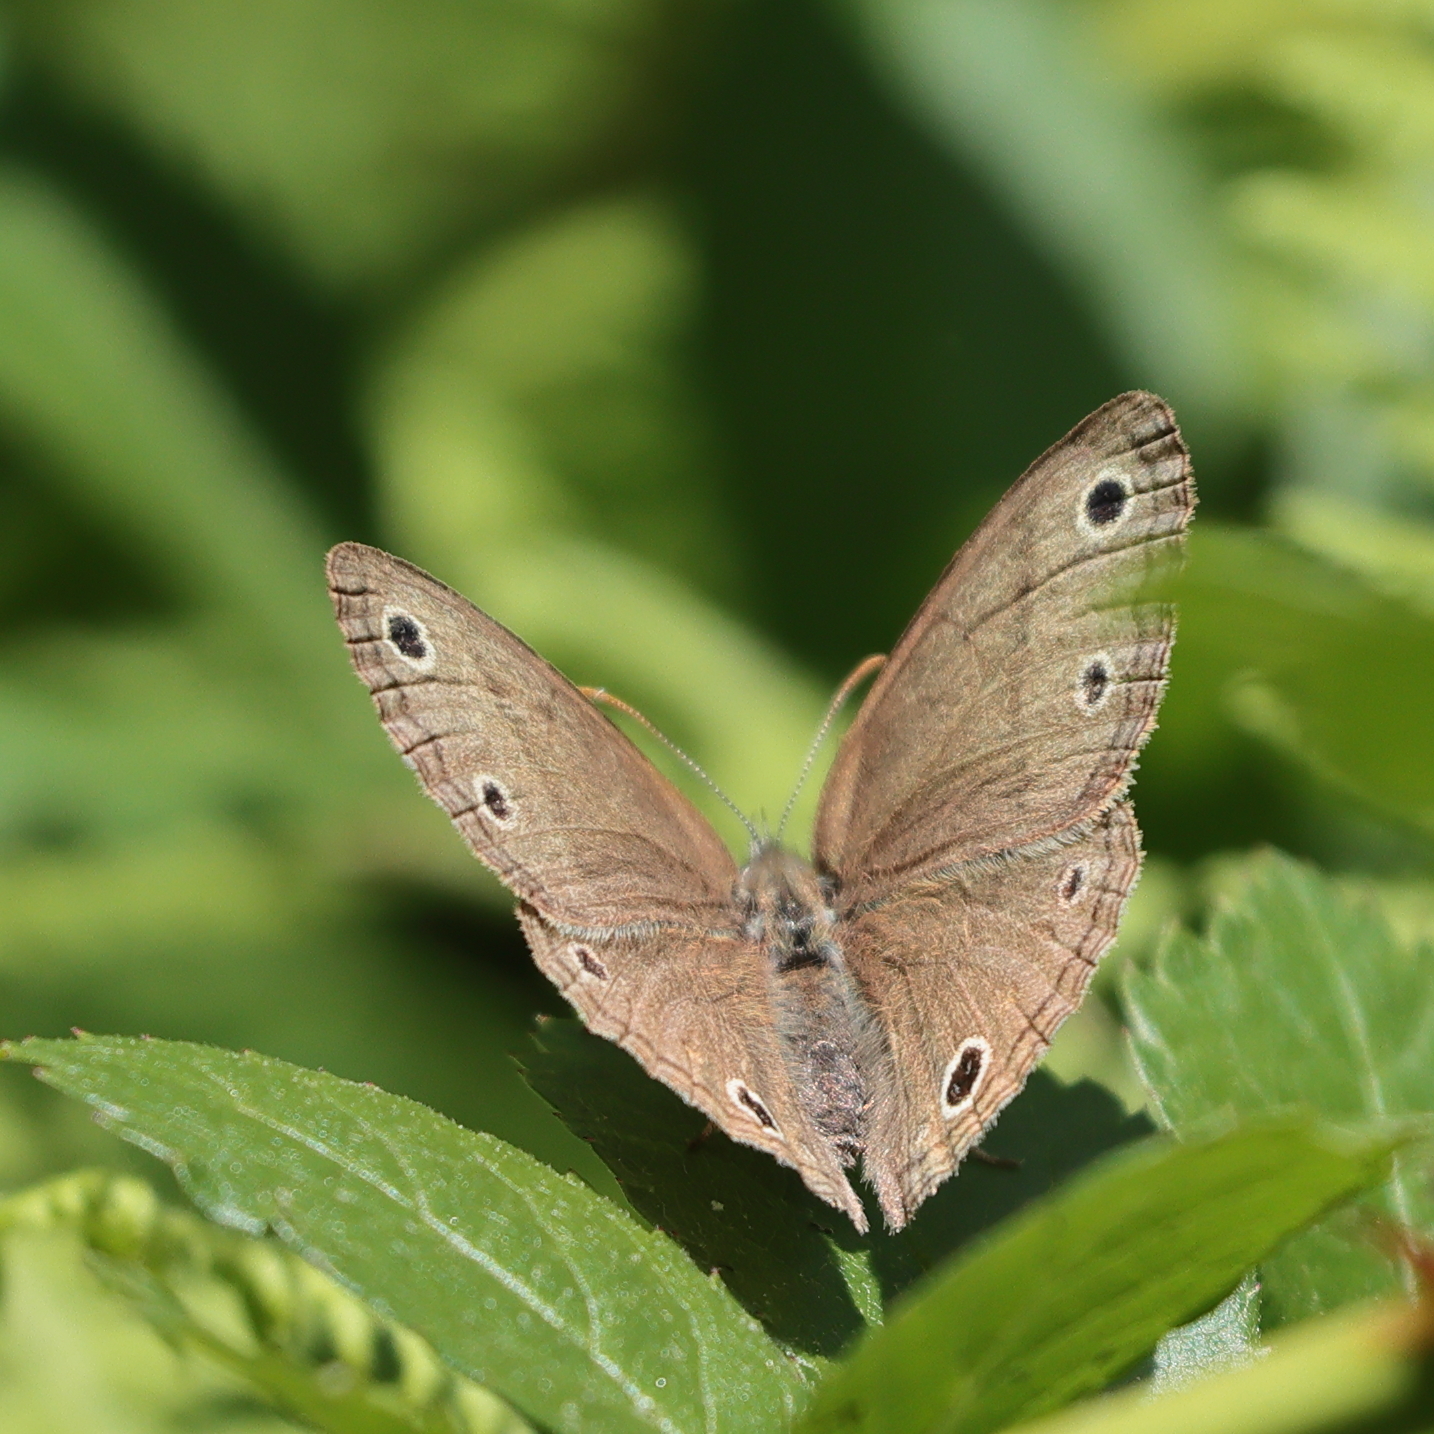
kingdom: Animalia
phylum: Arthropoda
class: Insecta
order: Lepidoptera
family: Nymphalidae
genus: Euptychia
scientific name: Euptychia cymela
